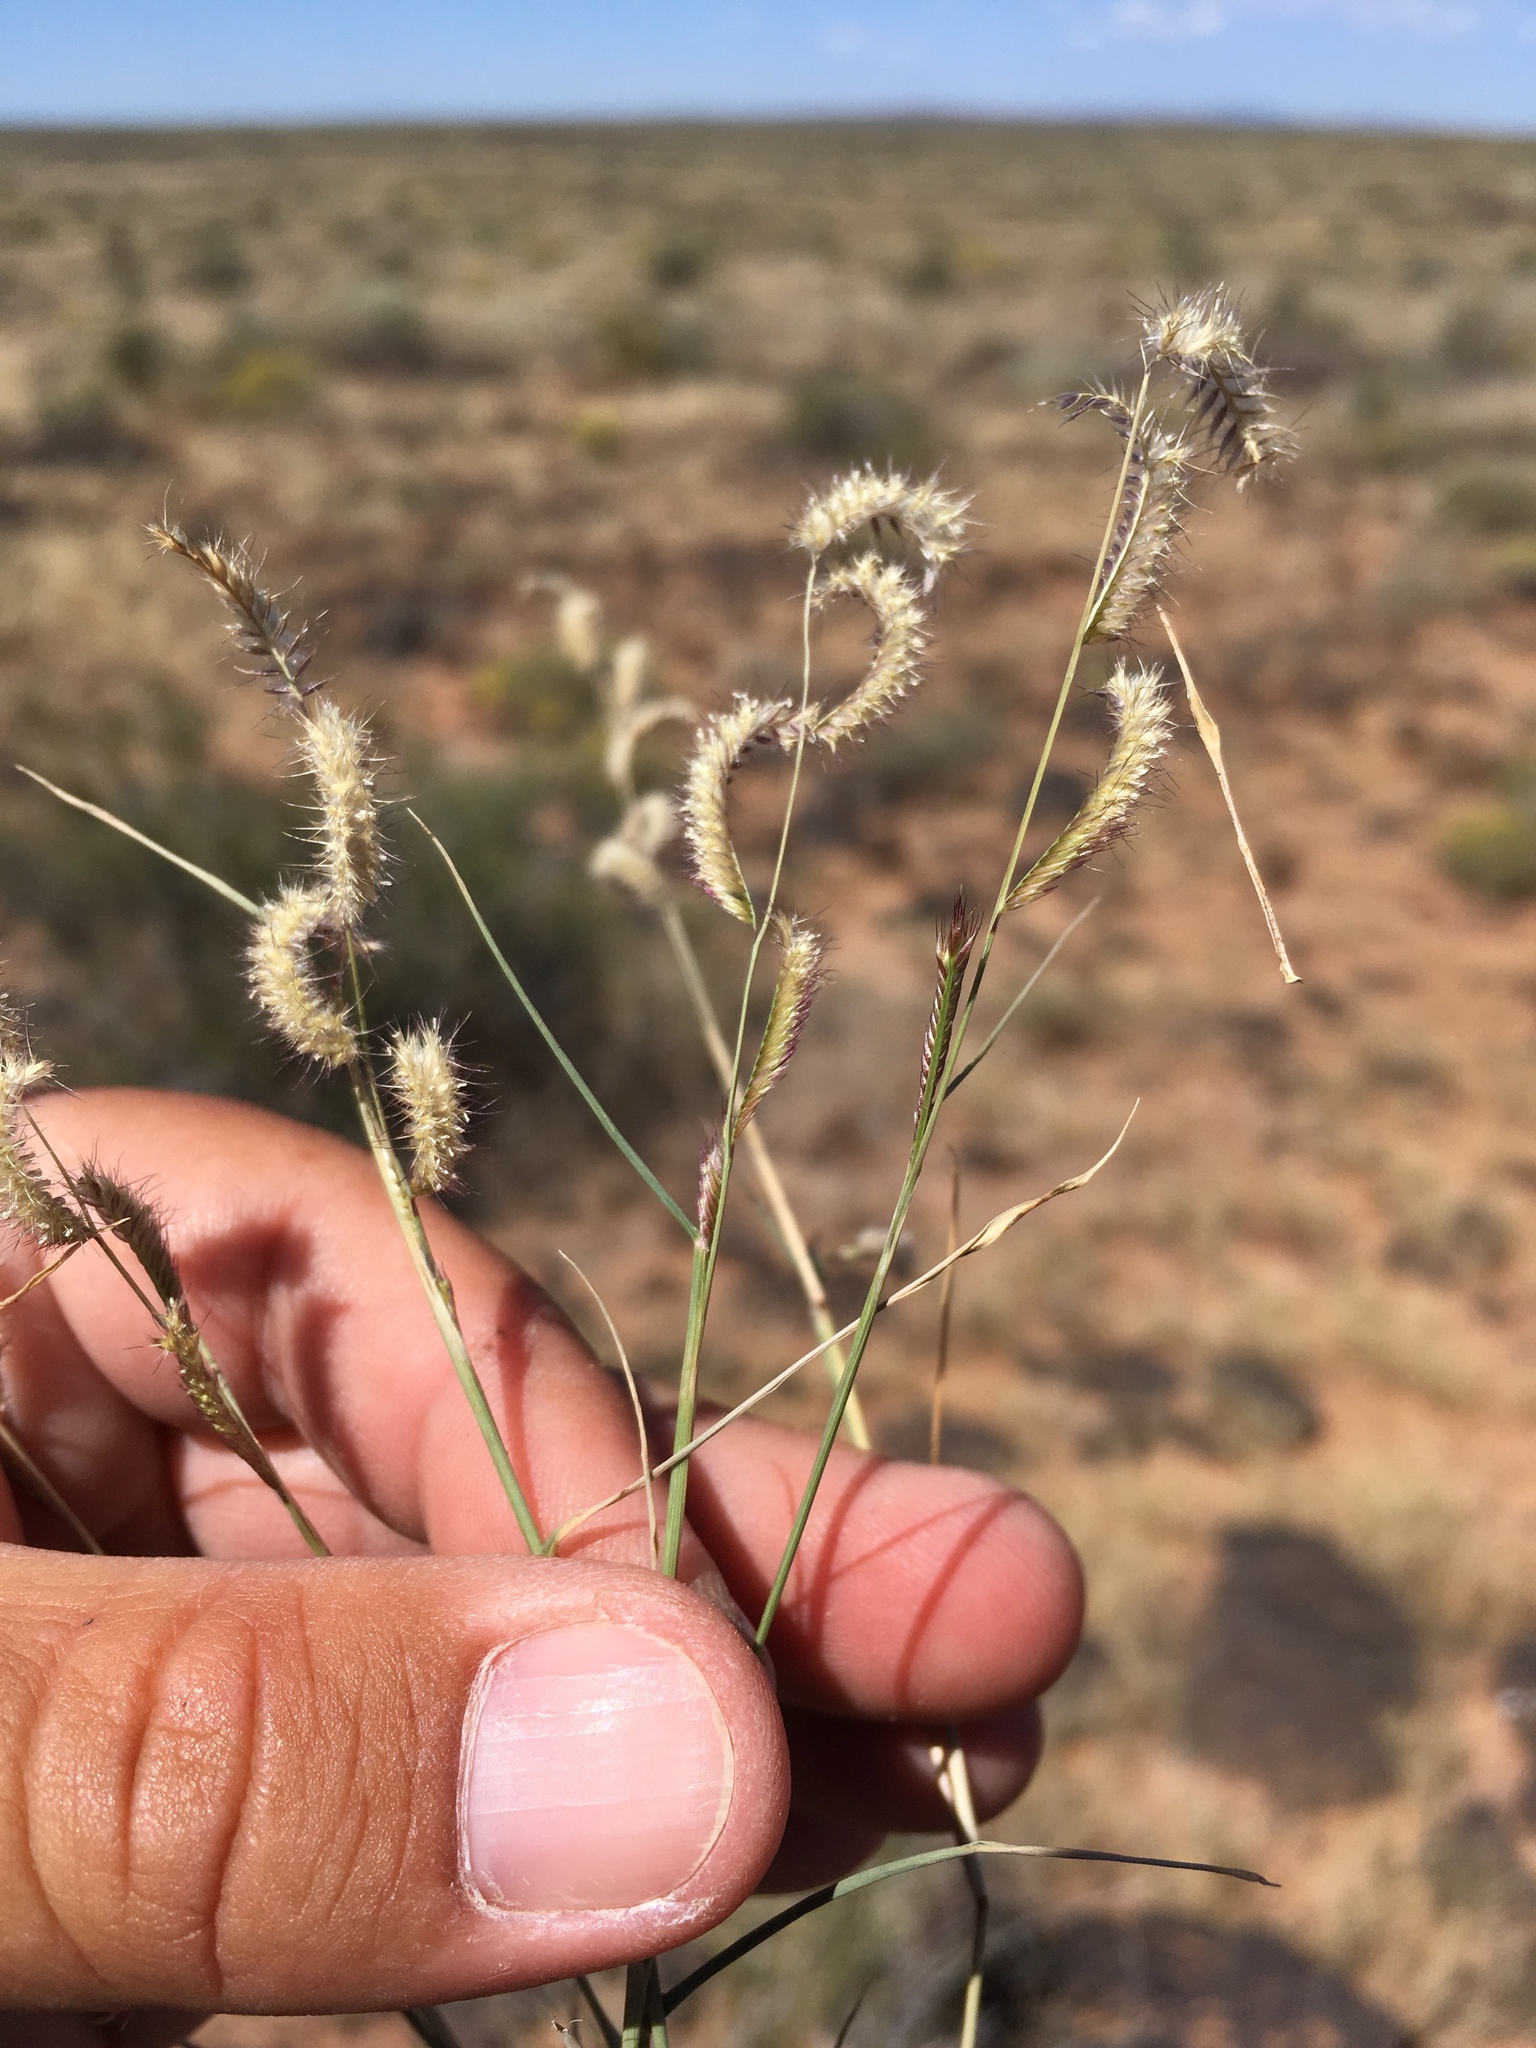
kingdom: Plantae
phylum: Tracheophyta
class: Liliopsida
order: Poales
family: Poaceae
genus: Bouteloua
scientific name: Bouteloua barbata
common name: Six-weeks grama
